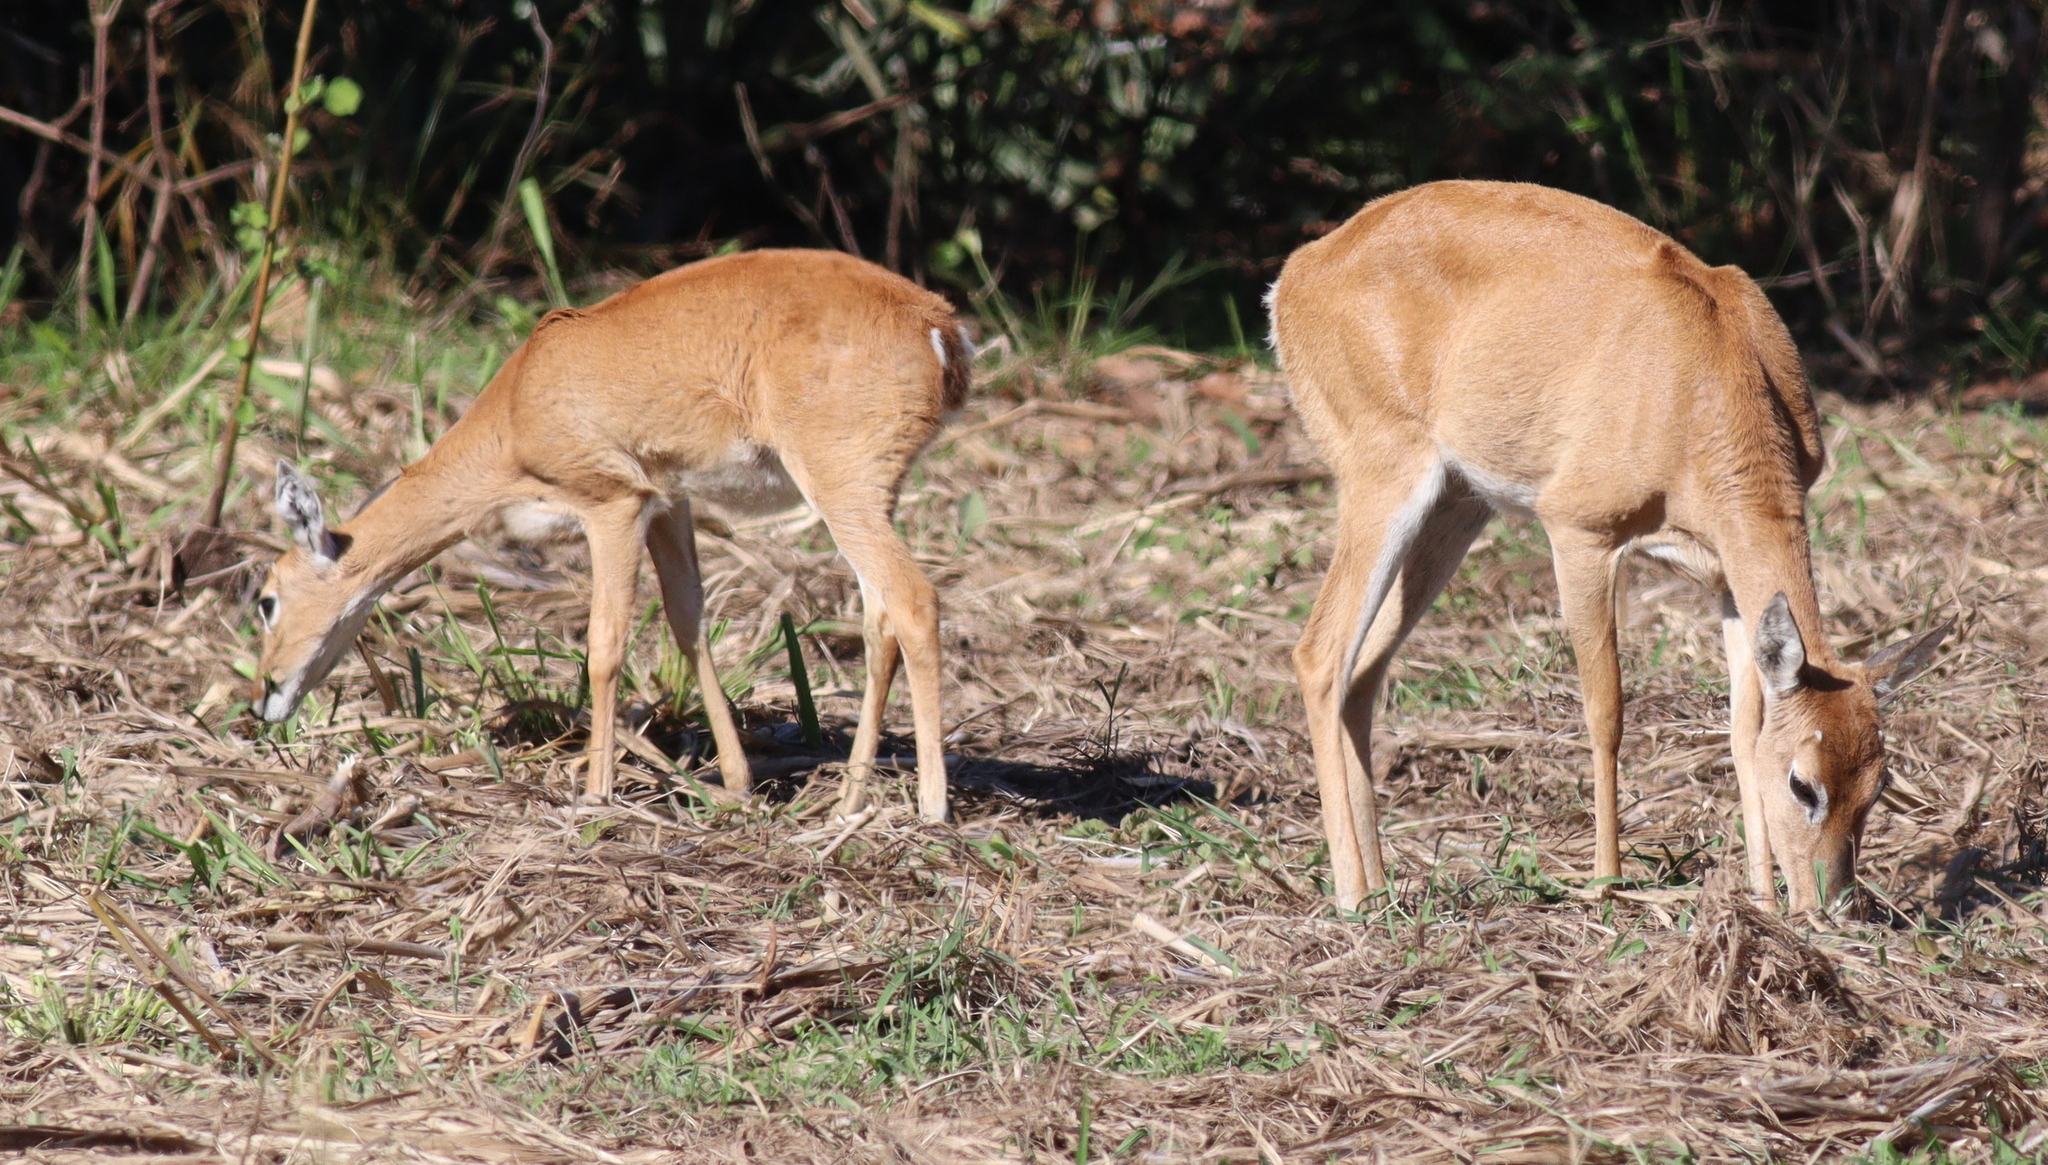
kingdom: Animalia
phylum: Chordata
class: Mammalia
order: Artiodactyla
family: Cervidae
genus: Ozotoceros
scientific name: Ozotoceros bezoarticus
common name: Pampas deer
